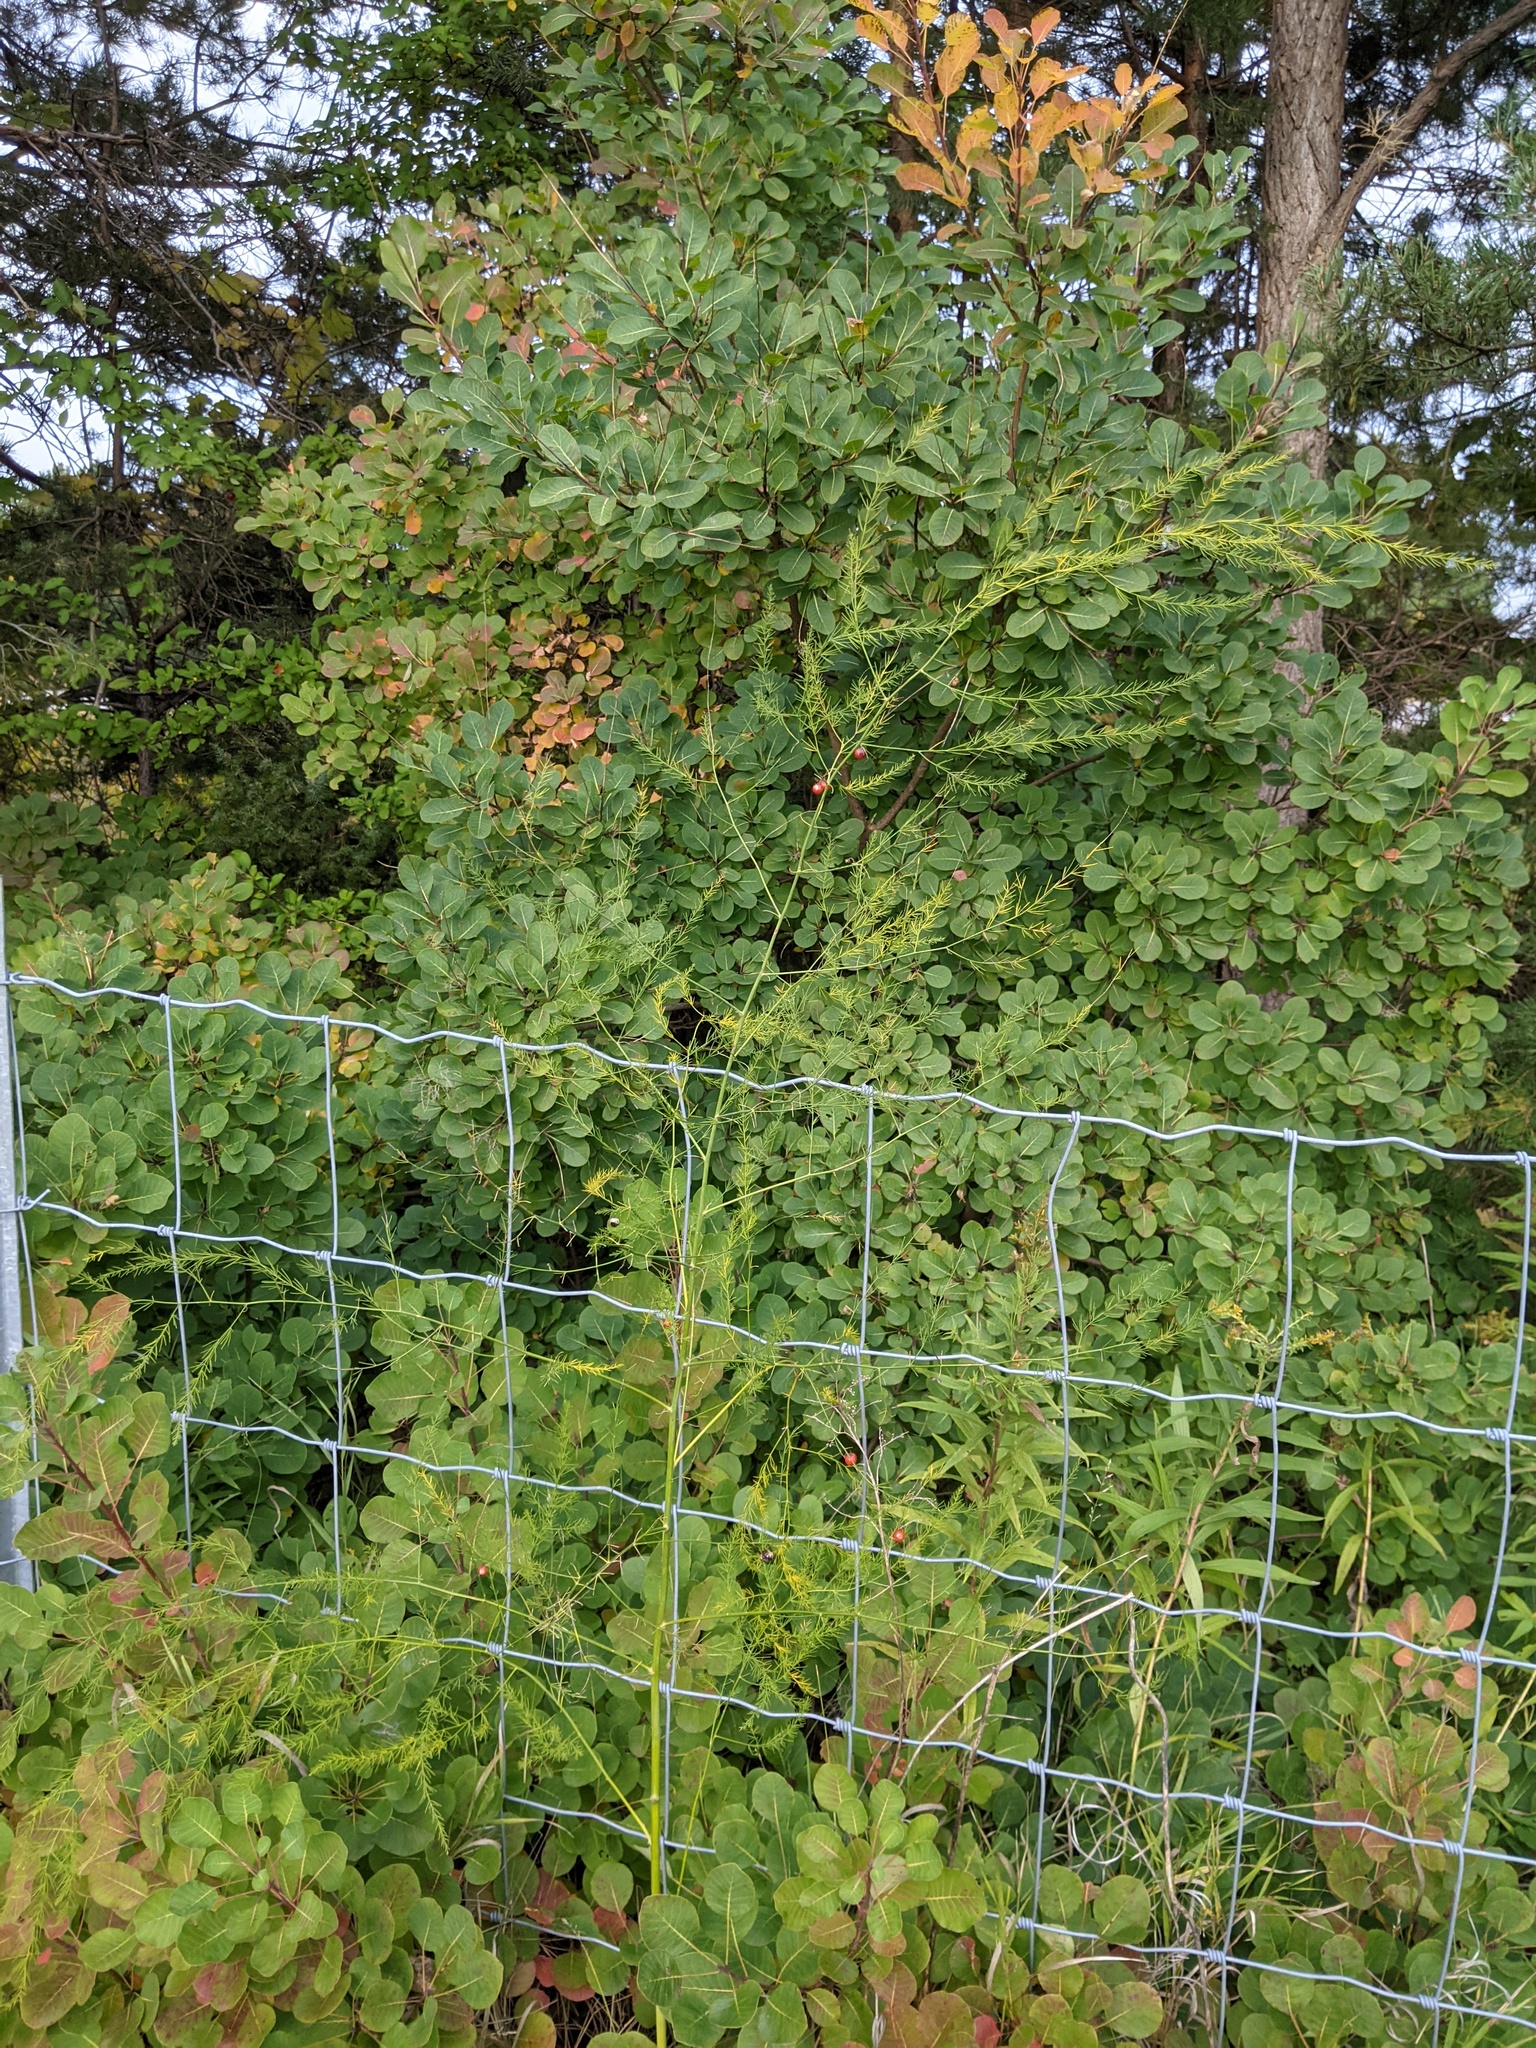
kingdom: Plantae
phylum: Tracheophyta
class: Liliopsida
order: Asparagales
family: Asparagaceae
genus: Asparagus
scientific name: Asparagus officinalis
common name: Garden asparagus
